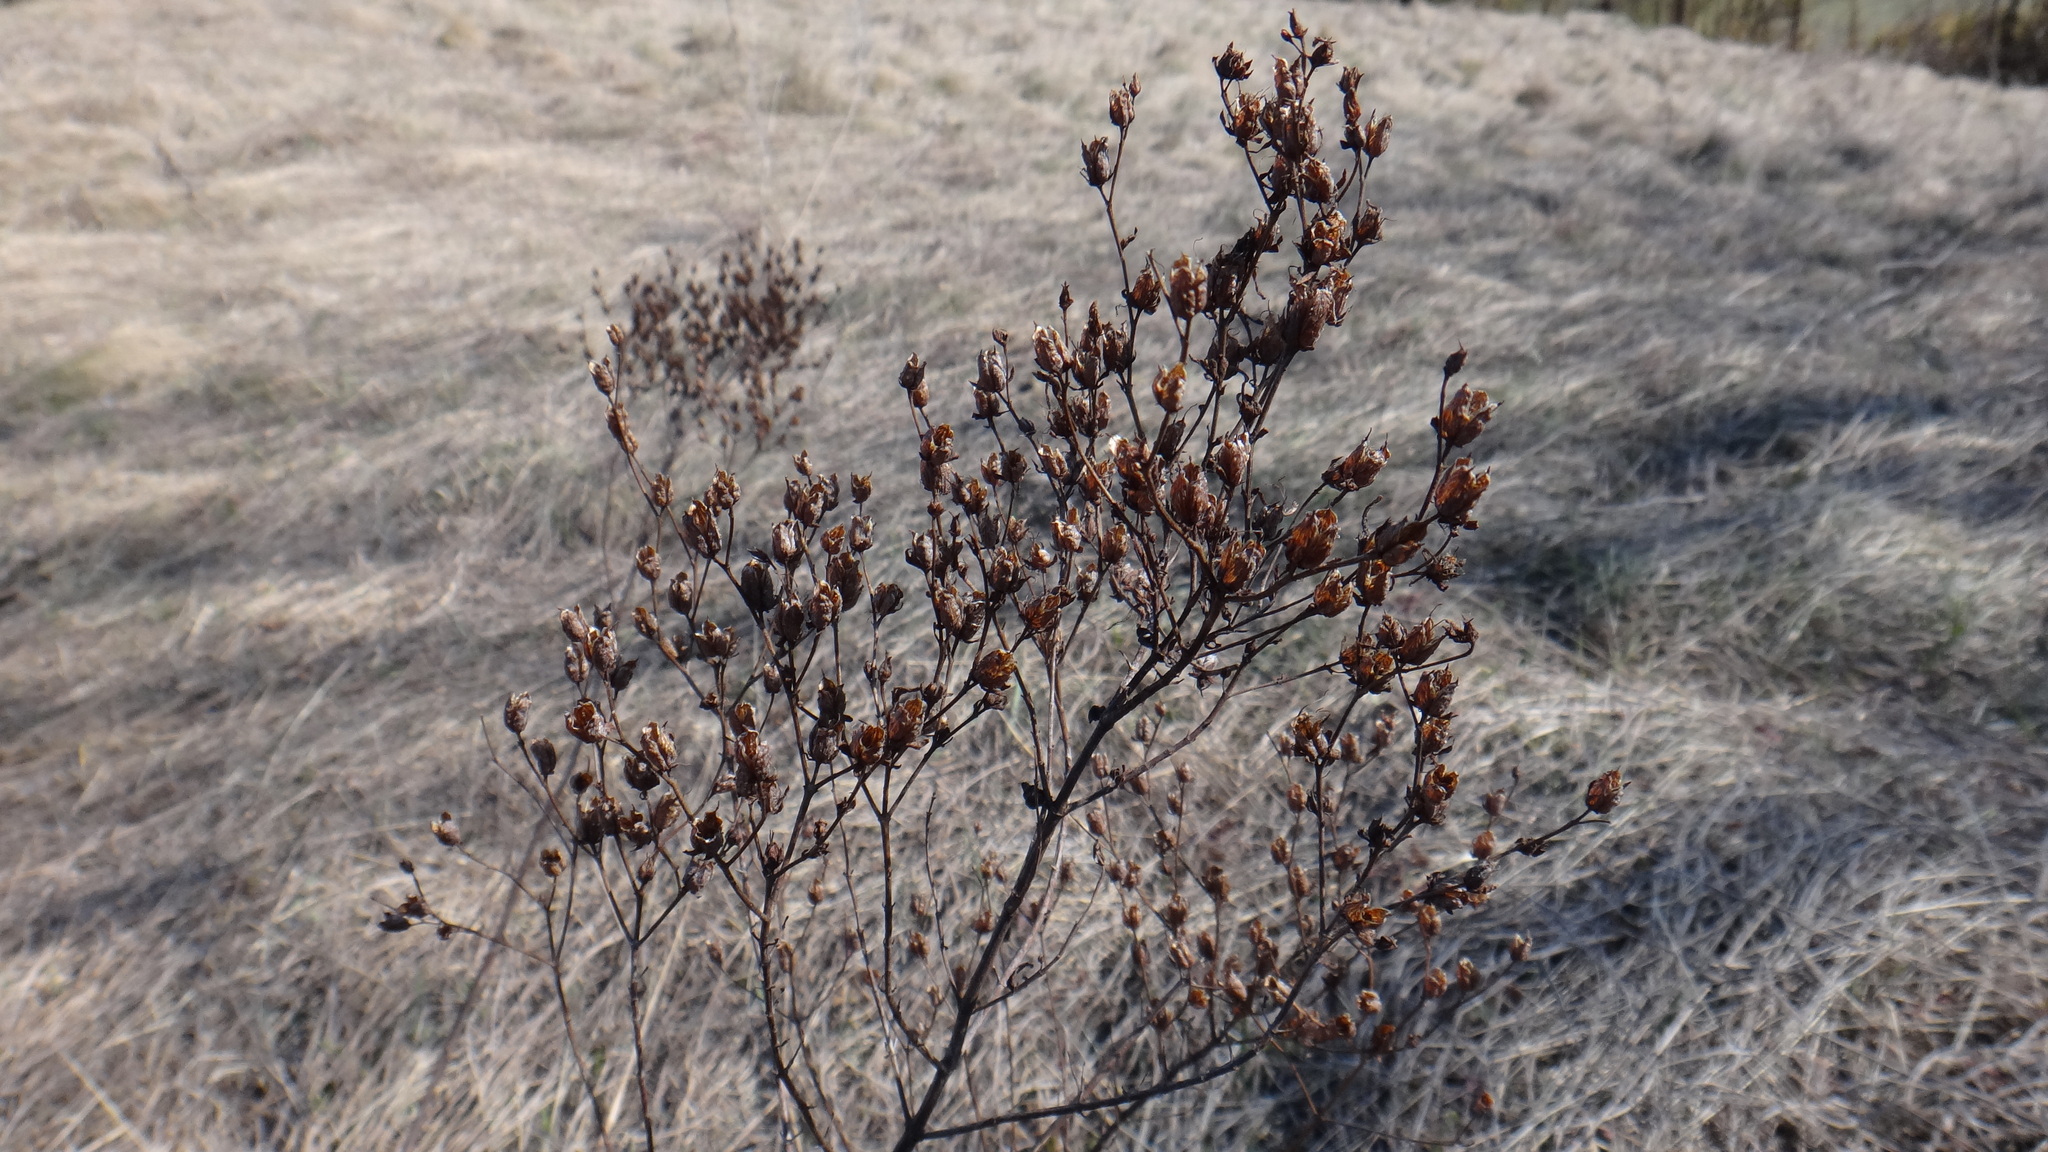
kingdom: Plantae
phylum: Tracheophyta
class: Magnoliopsida
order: Malpighiales
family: Hypericaceae
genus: Hypericum
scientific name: Hypericum perforatum
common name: Common st. johnswort
